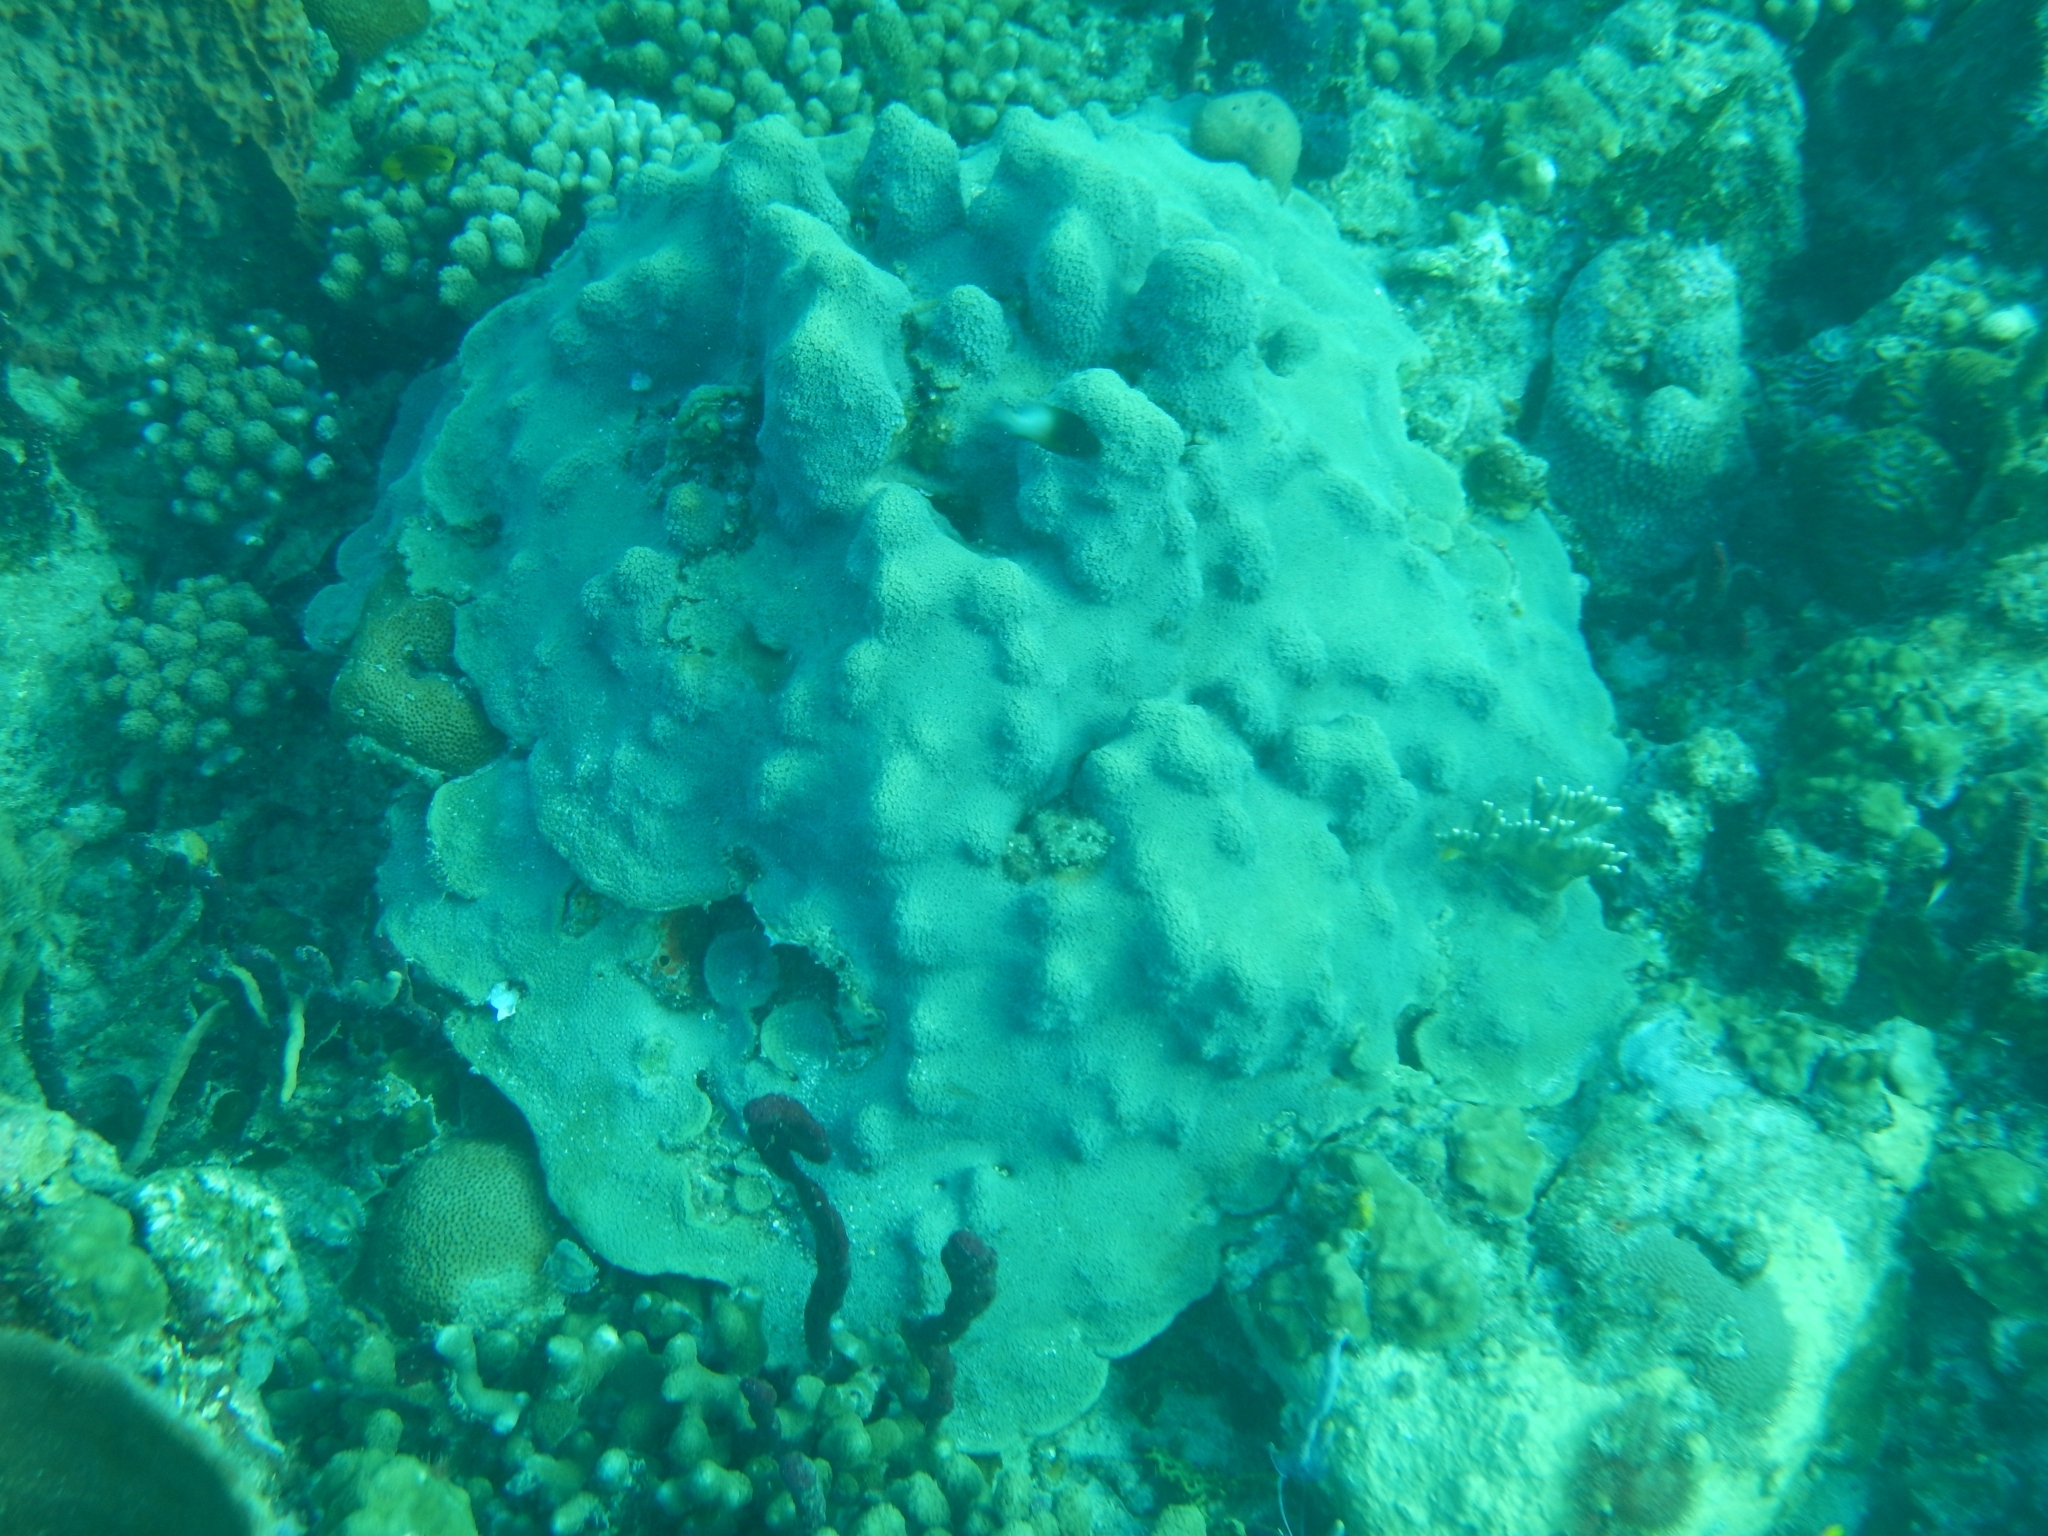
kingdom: Animalia
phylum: Cnidaria
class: Anthozoa
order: Scleractinia
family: Merulinidae
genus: Orbicella
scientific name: Orbicella faveolata
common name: Mountainous star coral
